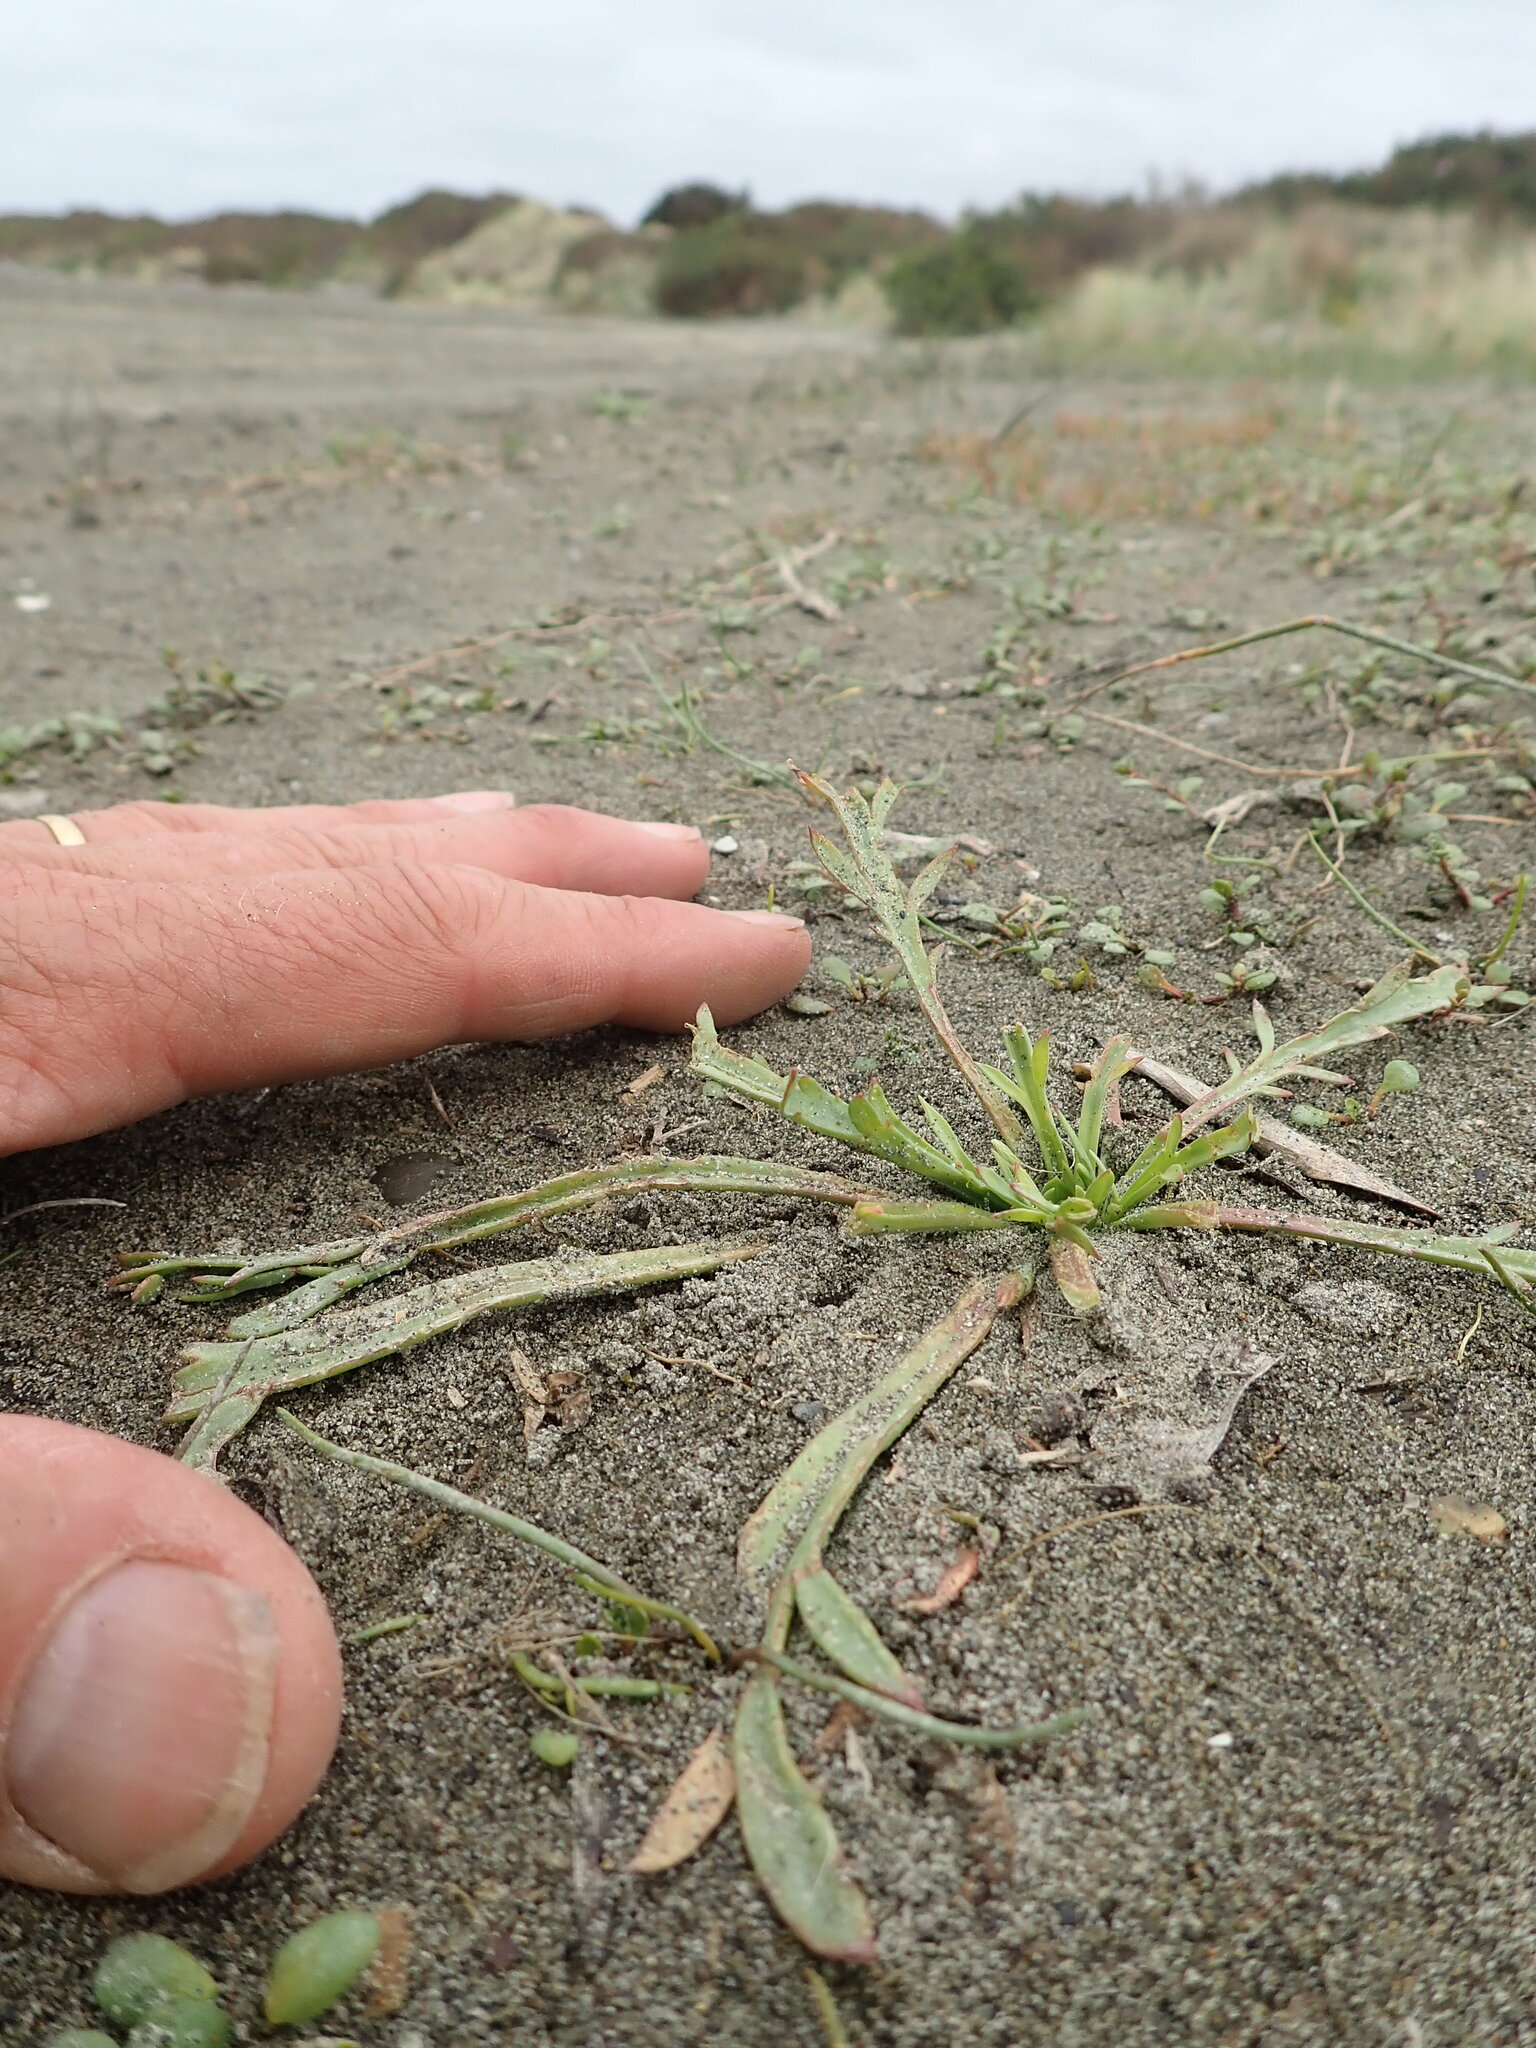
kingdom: Plantae
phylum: Tracheophyta
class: Magnoliopsida
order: Lamiales
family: Plantaginaceae
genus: Plantago
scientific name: Plantago coronopus
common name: Buck's-horn plantain
